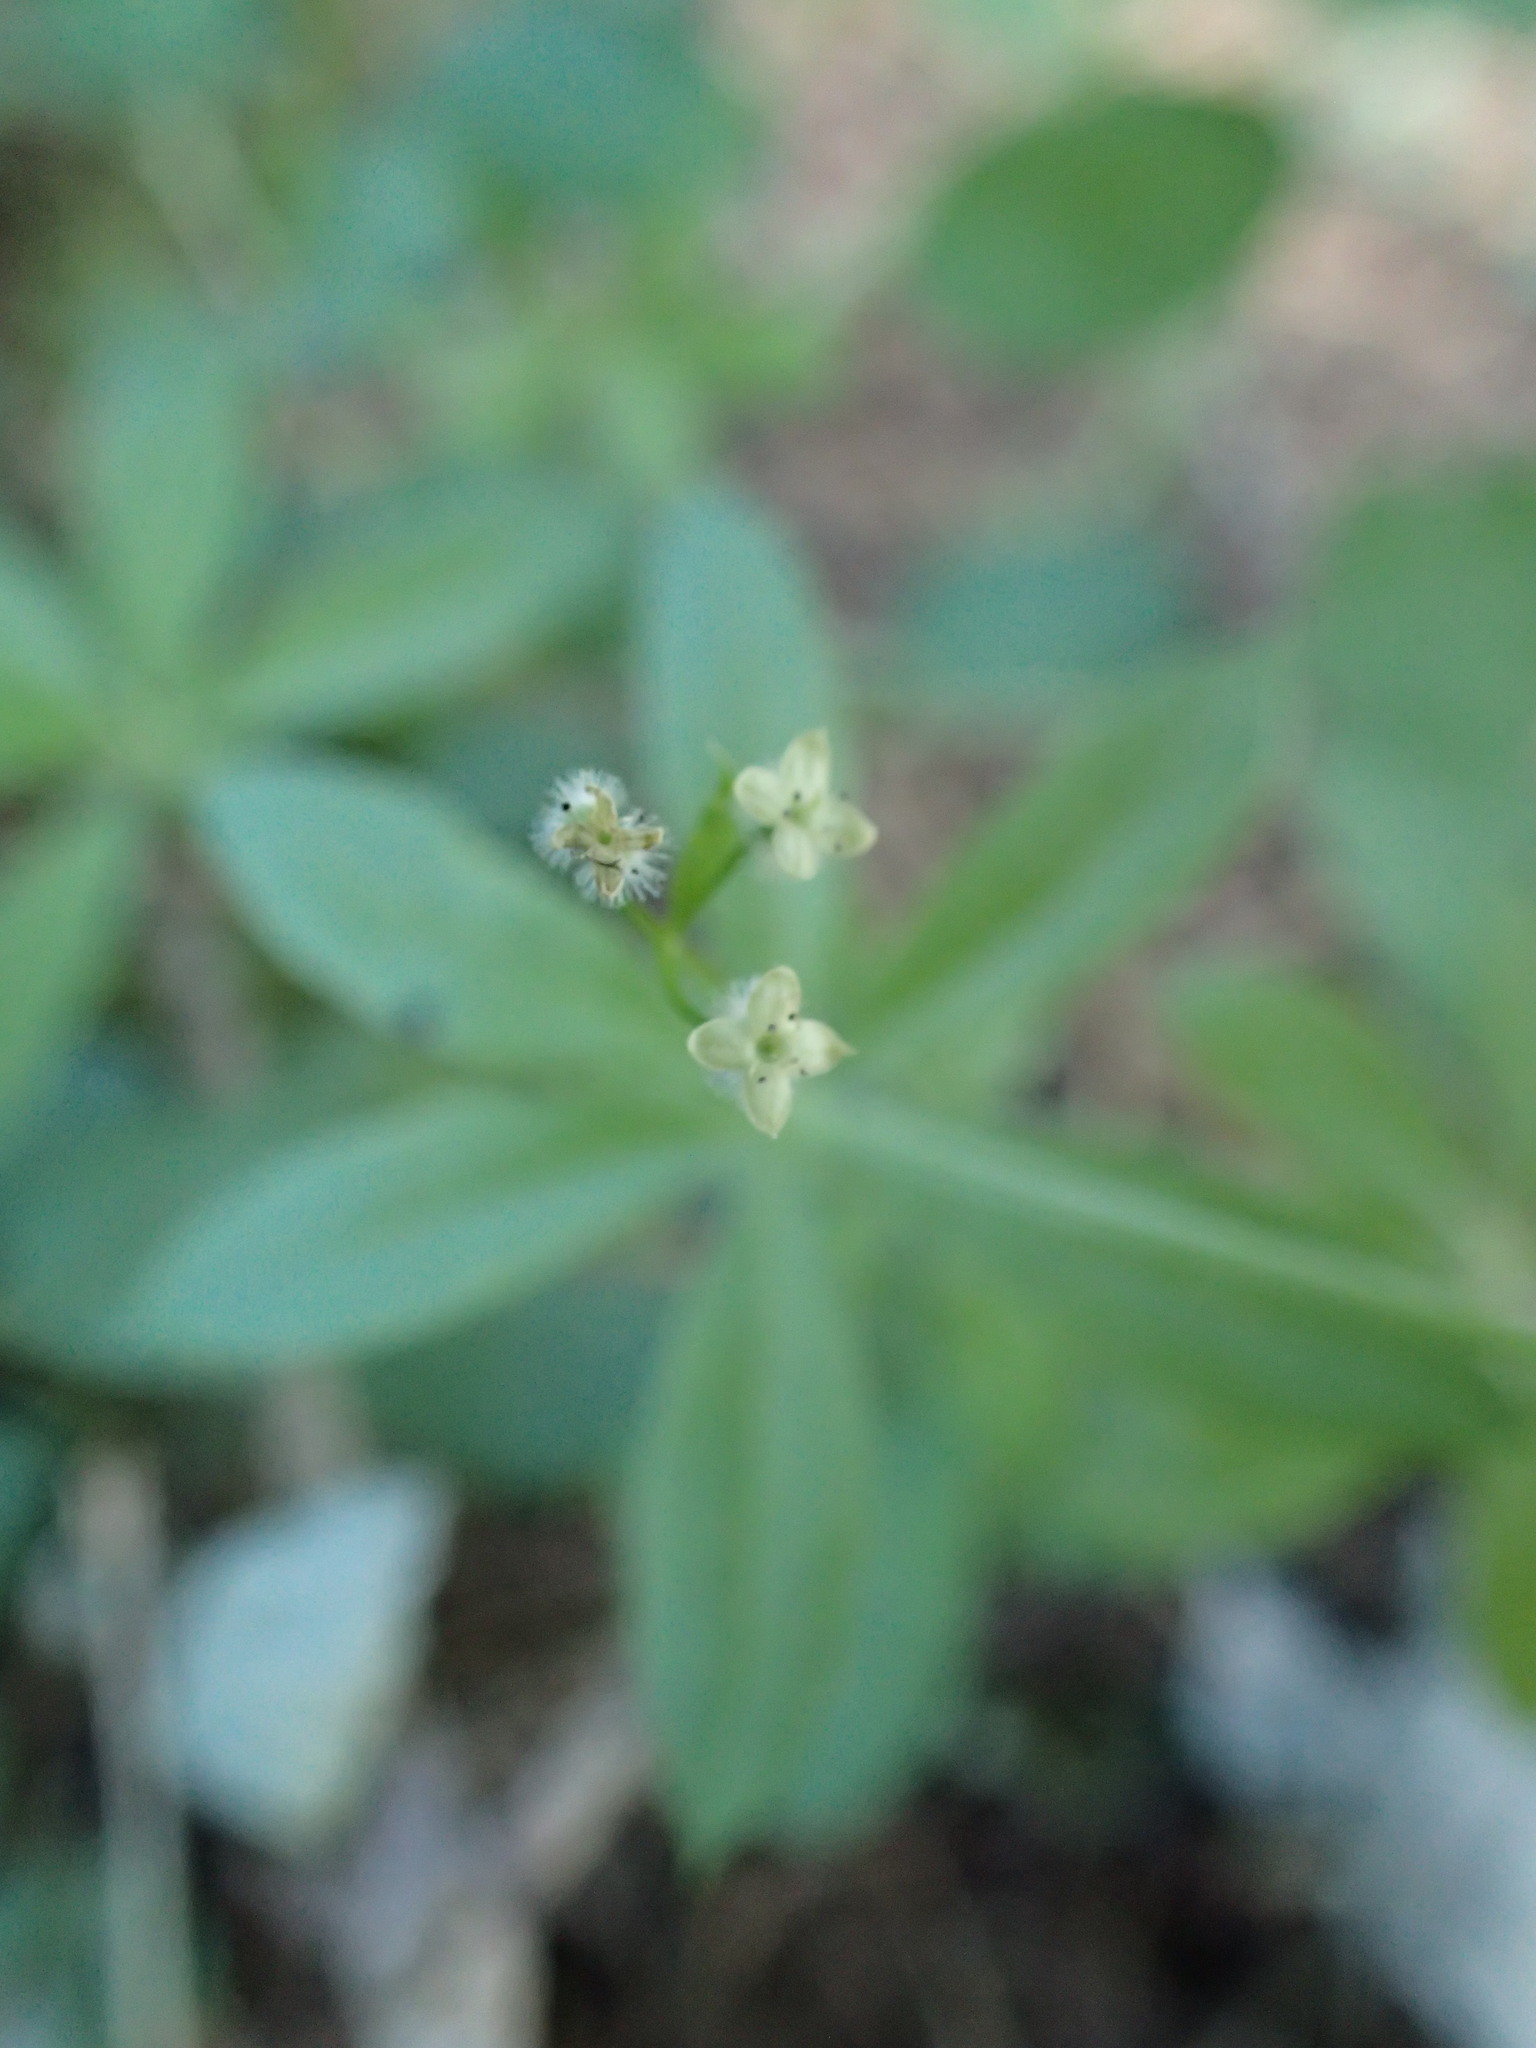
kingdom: Plantae
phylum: Tracheophyta
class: Magnoliopsida
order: Gentianales
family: Rubiaceae
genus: Galium
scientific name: Galium triflorum
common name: Fragrant bedstraw
